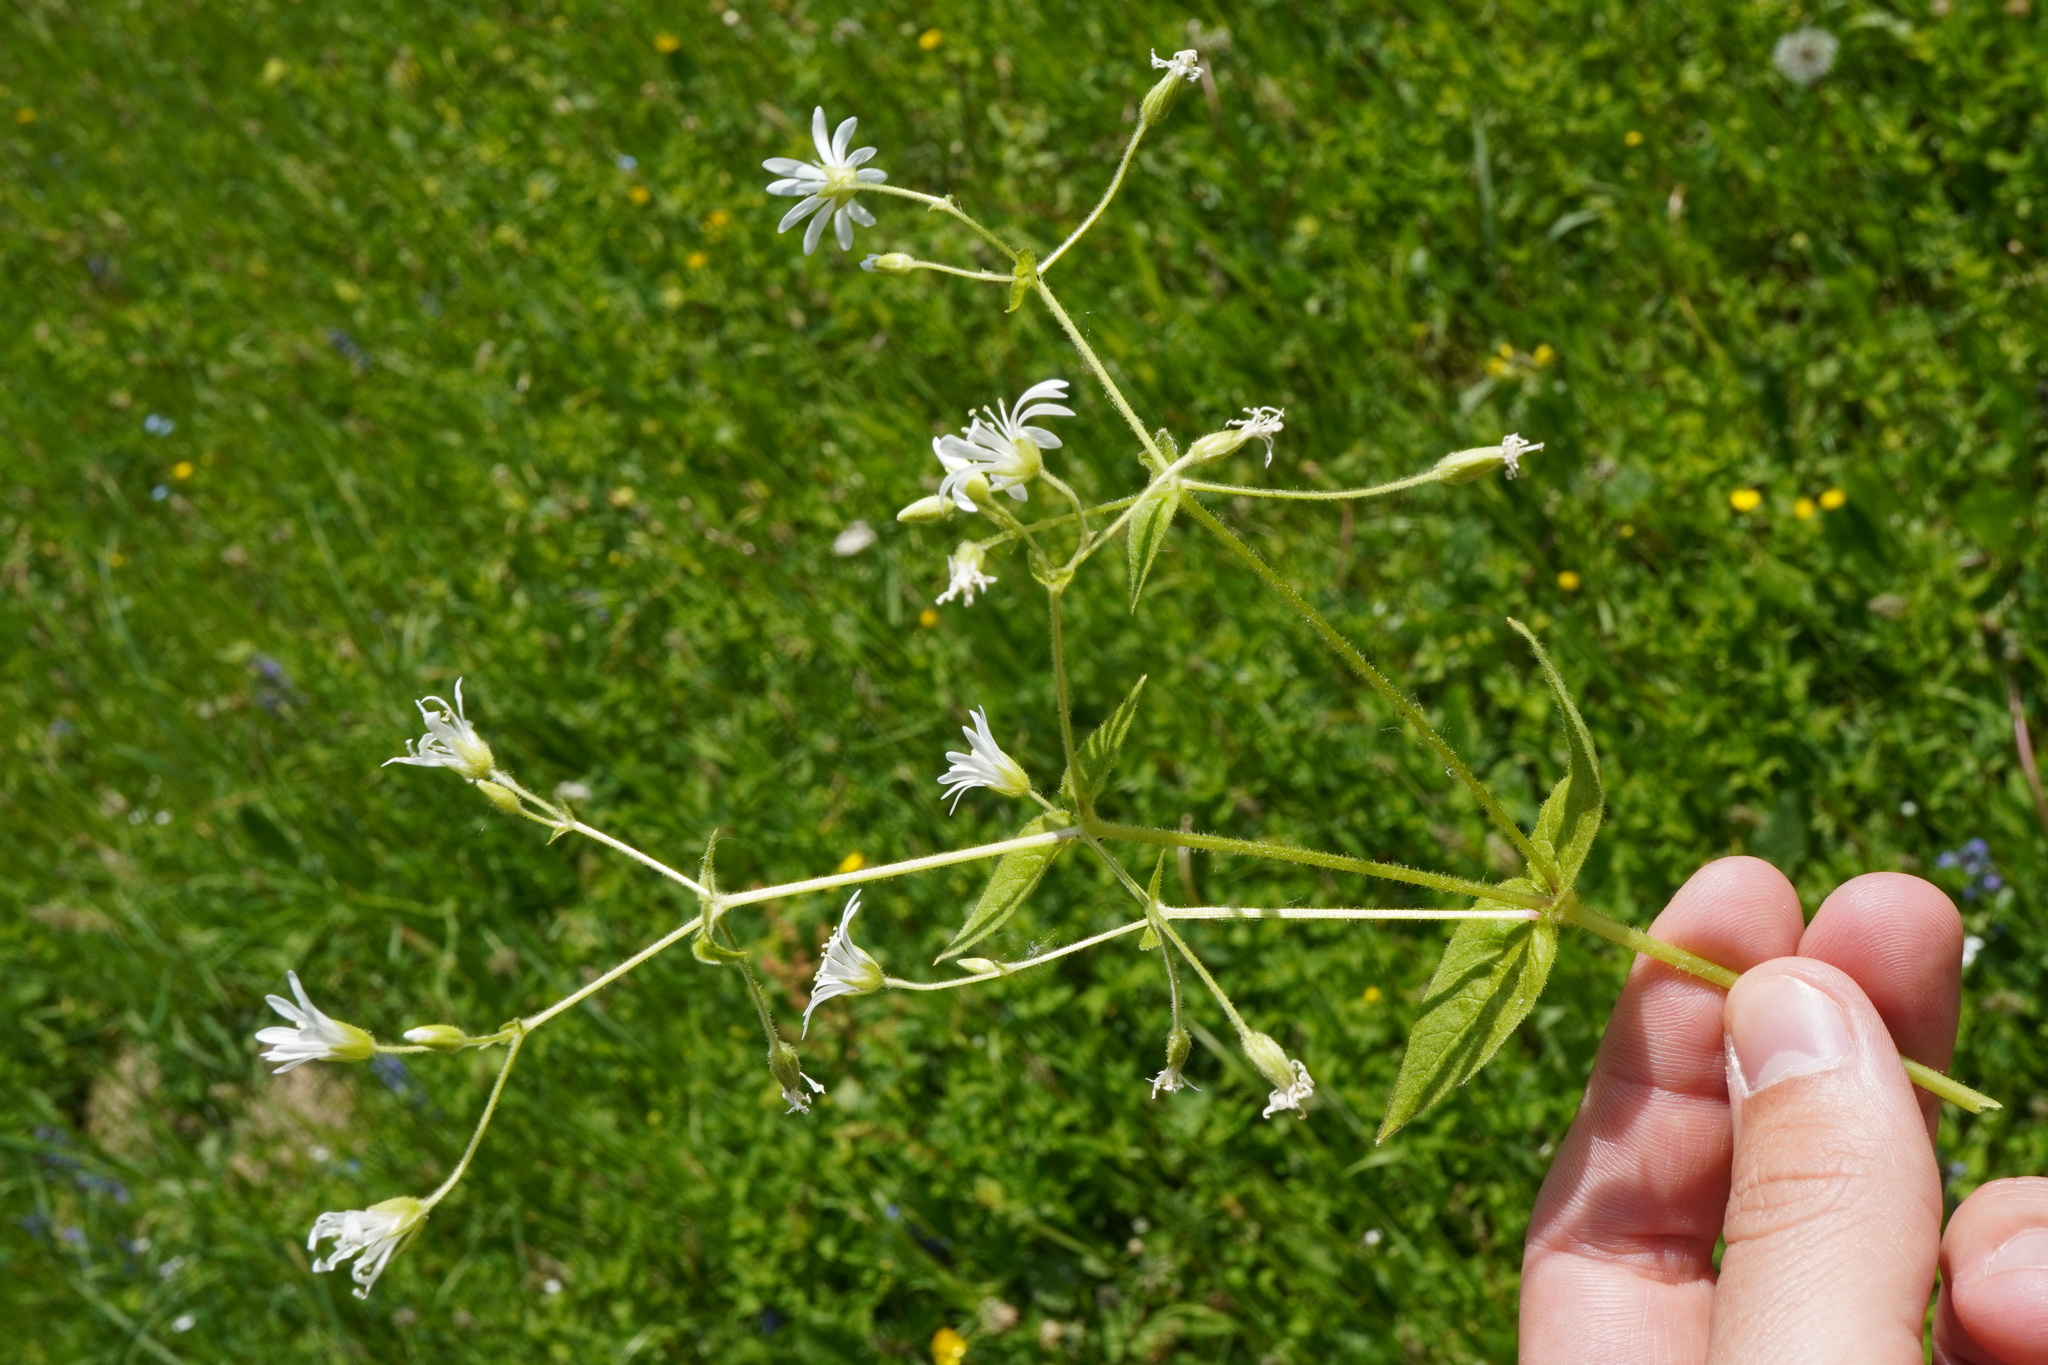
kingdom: Plantae
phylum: Tracheophyta
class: Magnoliopsida
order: Caryophyllales
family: Caryophyllaceae
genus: Stellaria
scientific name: Stellaria nemorum
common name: Wood stitchwort
